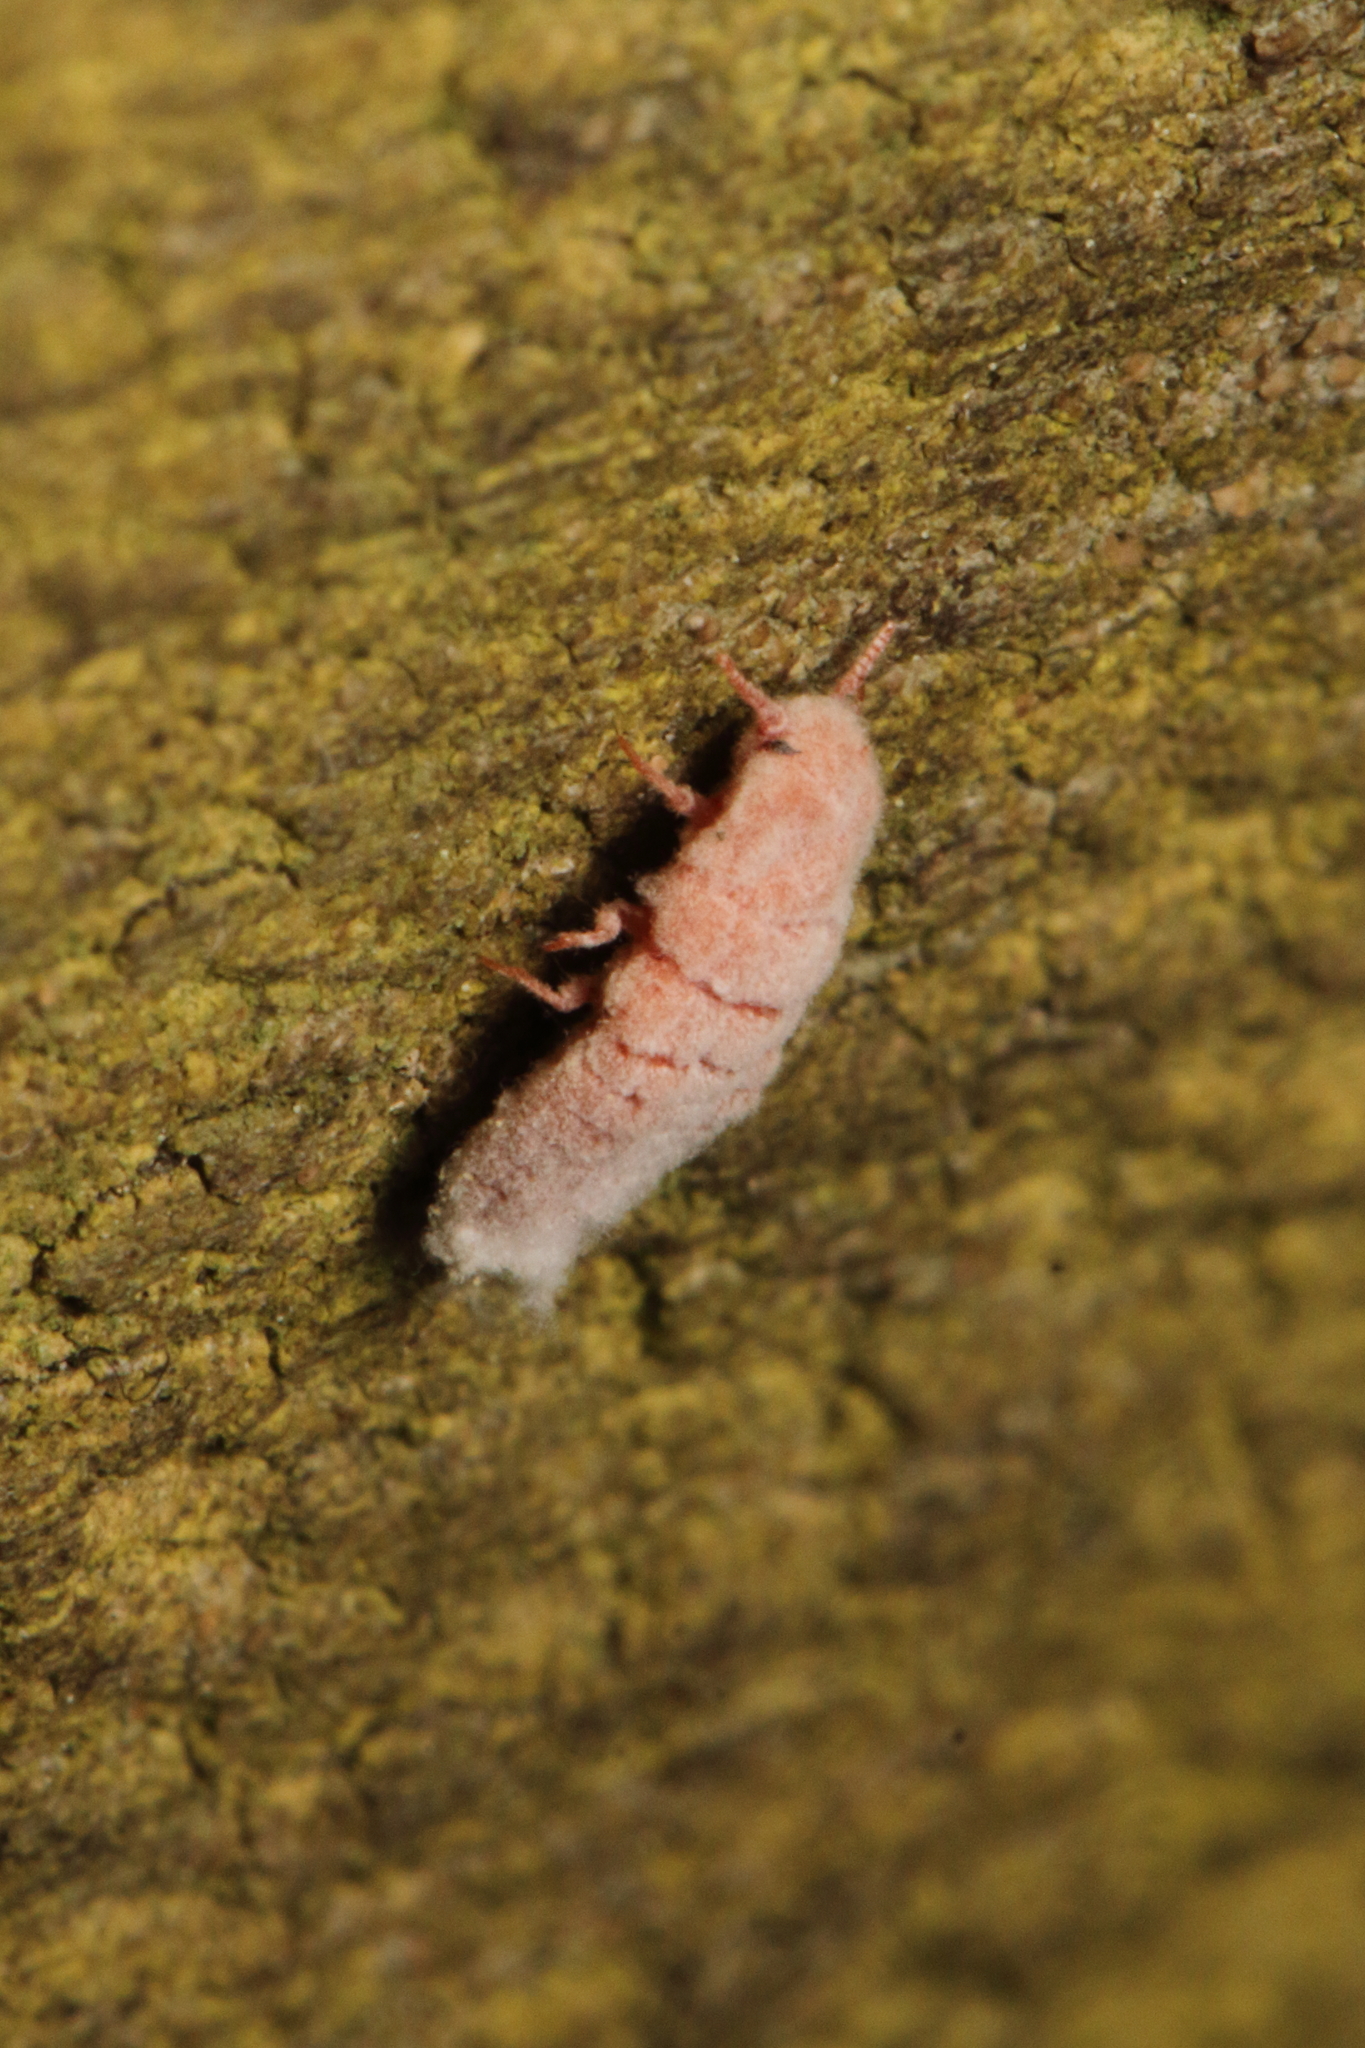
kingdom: Animalia
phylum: Arthropoda
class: Insecta
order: Hemiptera
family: Margarodidae
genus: Coelostomidia
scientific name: Coelostomidia zealandica
